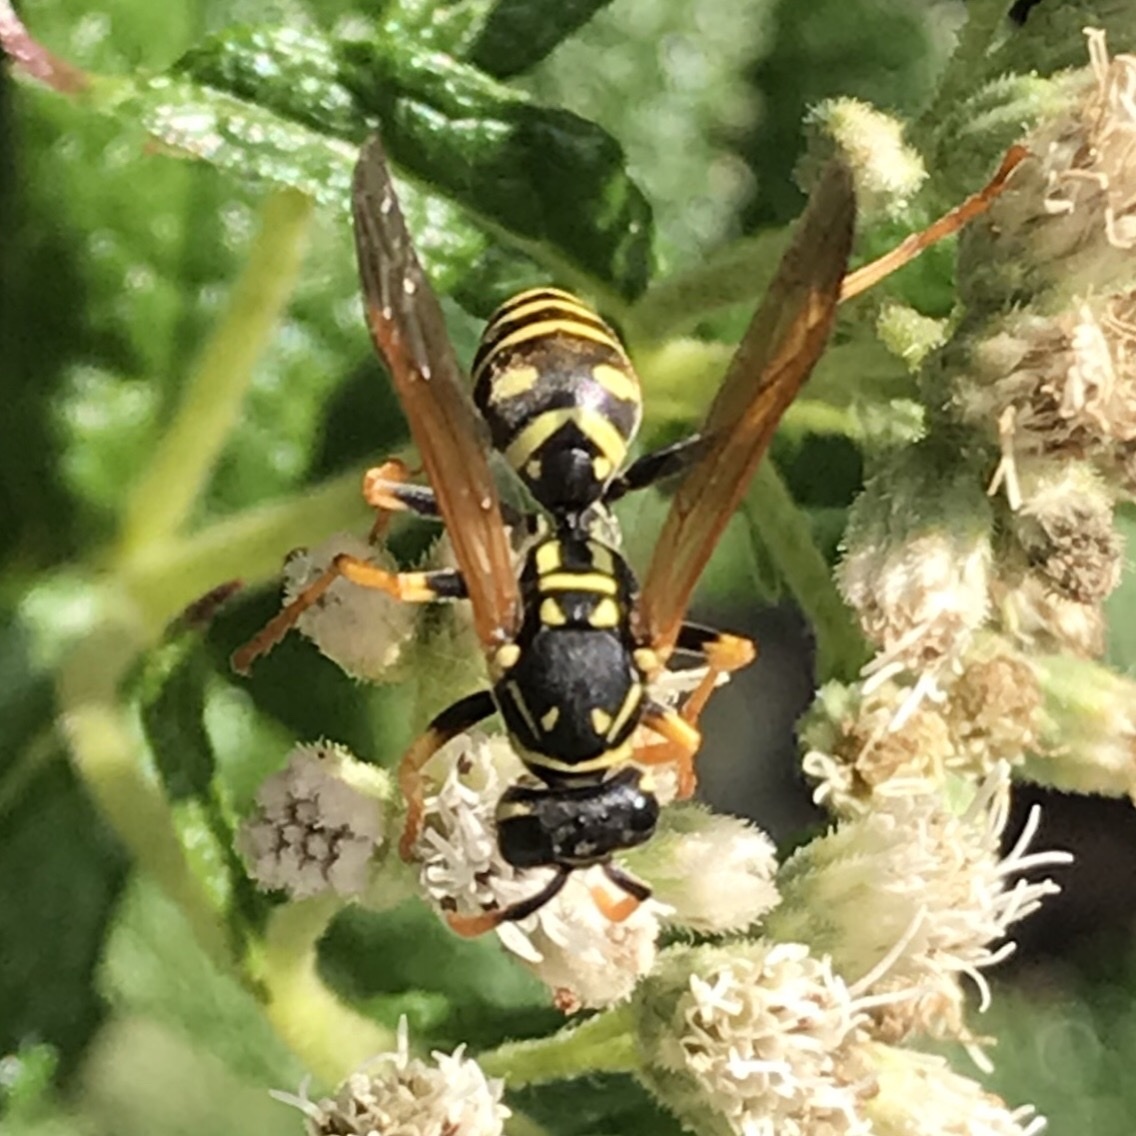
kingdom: Animalia
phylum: Arthropoda
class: Insecta
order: Hymenoptera
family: Eumenidae
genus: Polistes
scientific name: Polistes dominula
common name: Paper wasp
